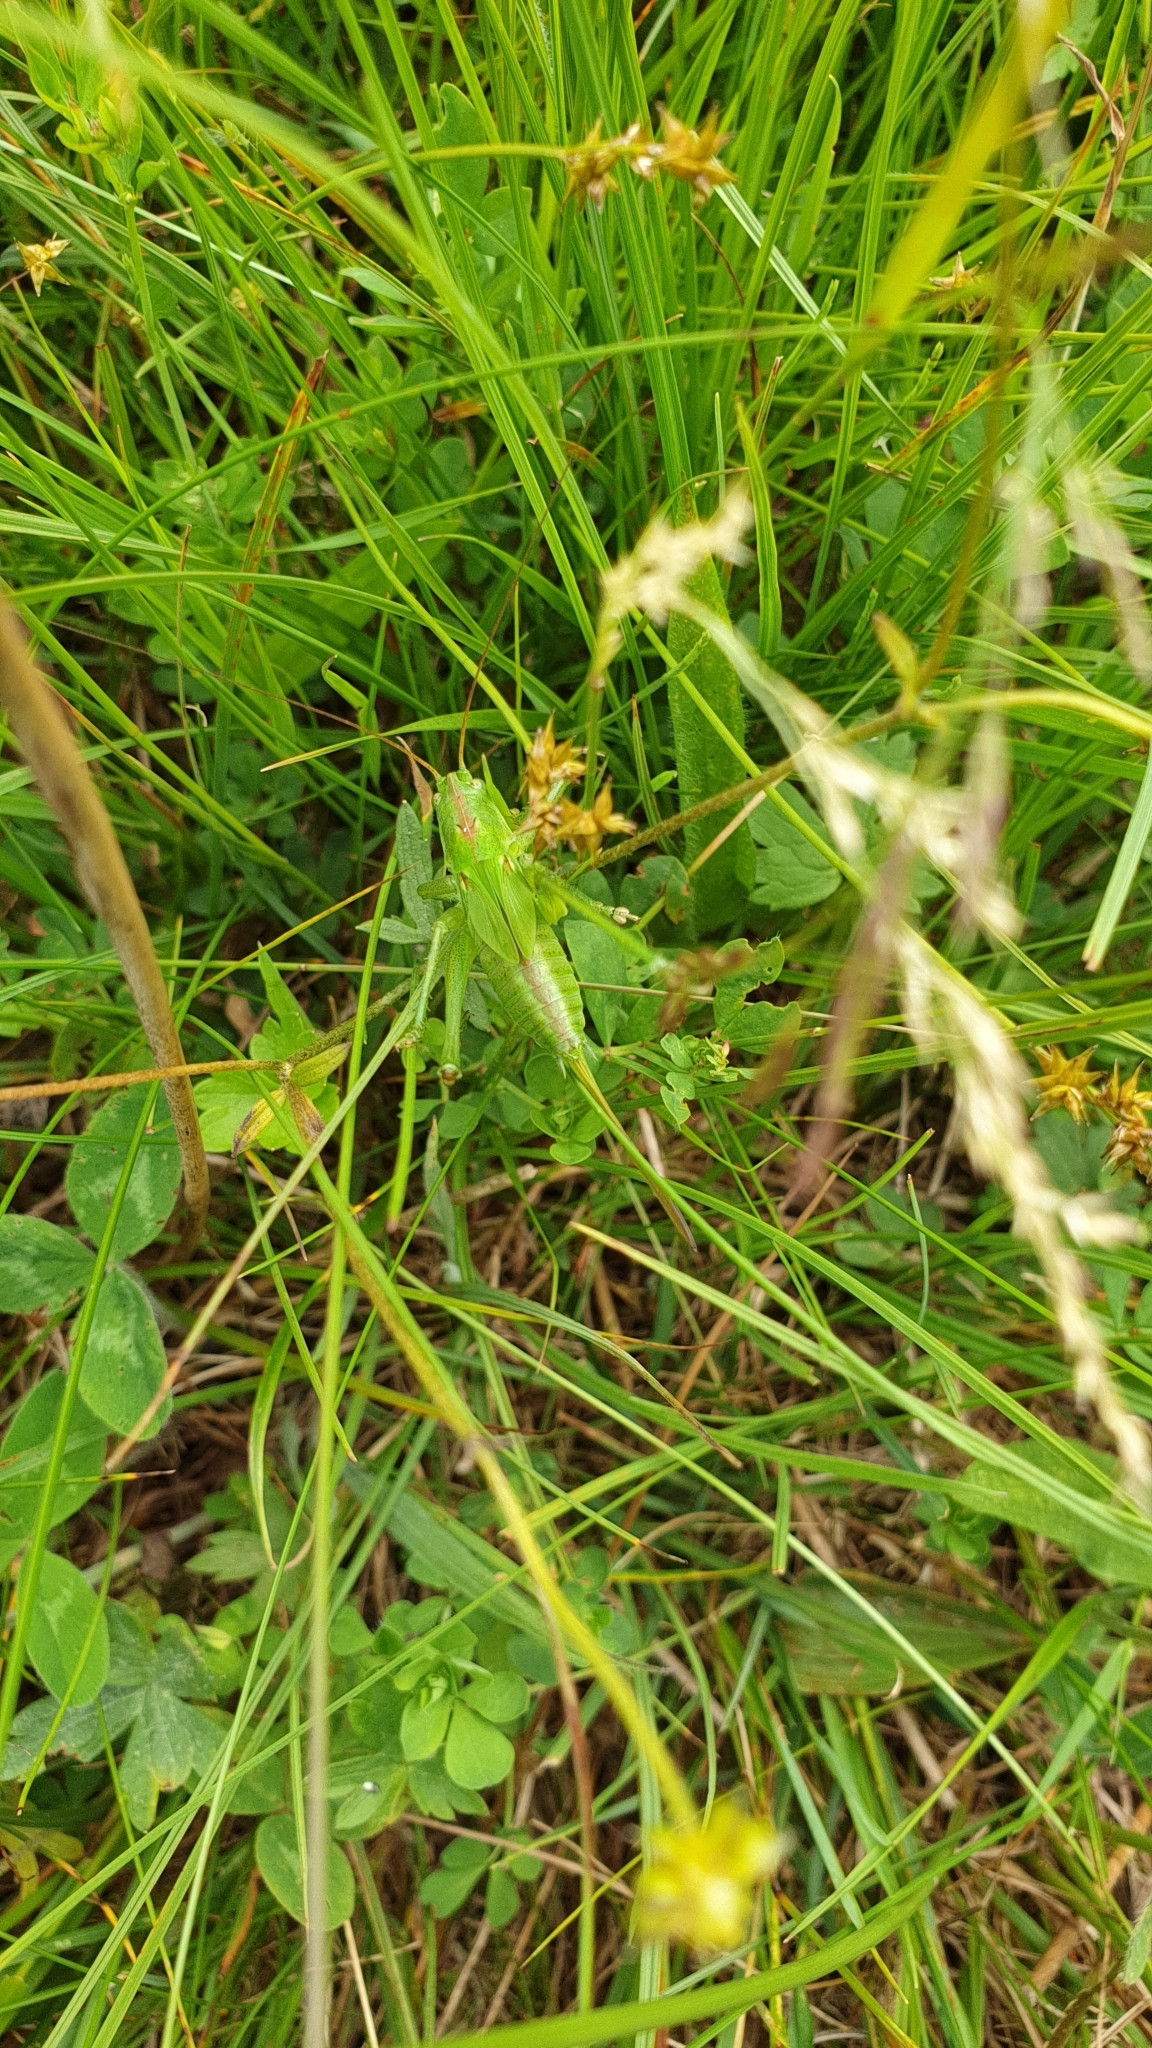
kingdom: Animalia
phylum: Arthropoda
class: Insecta
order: Orthoptera
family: Tettigoniidae
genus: Tettigonia
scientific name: Tettigonia viridissima
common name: Great green bush-cricket
